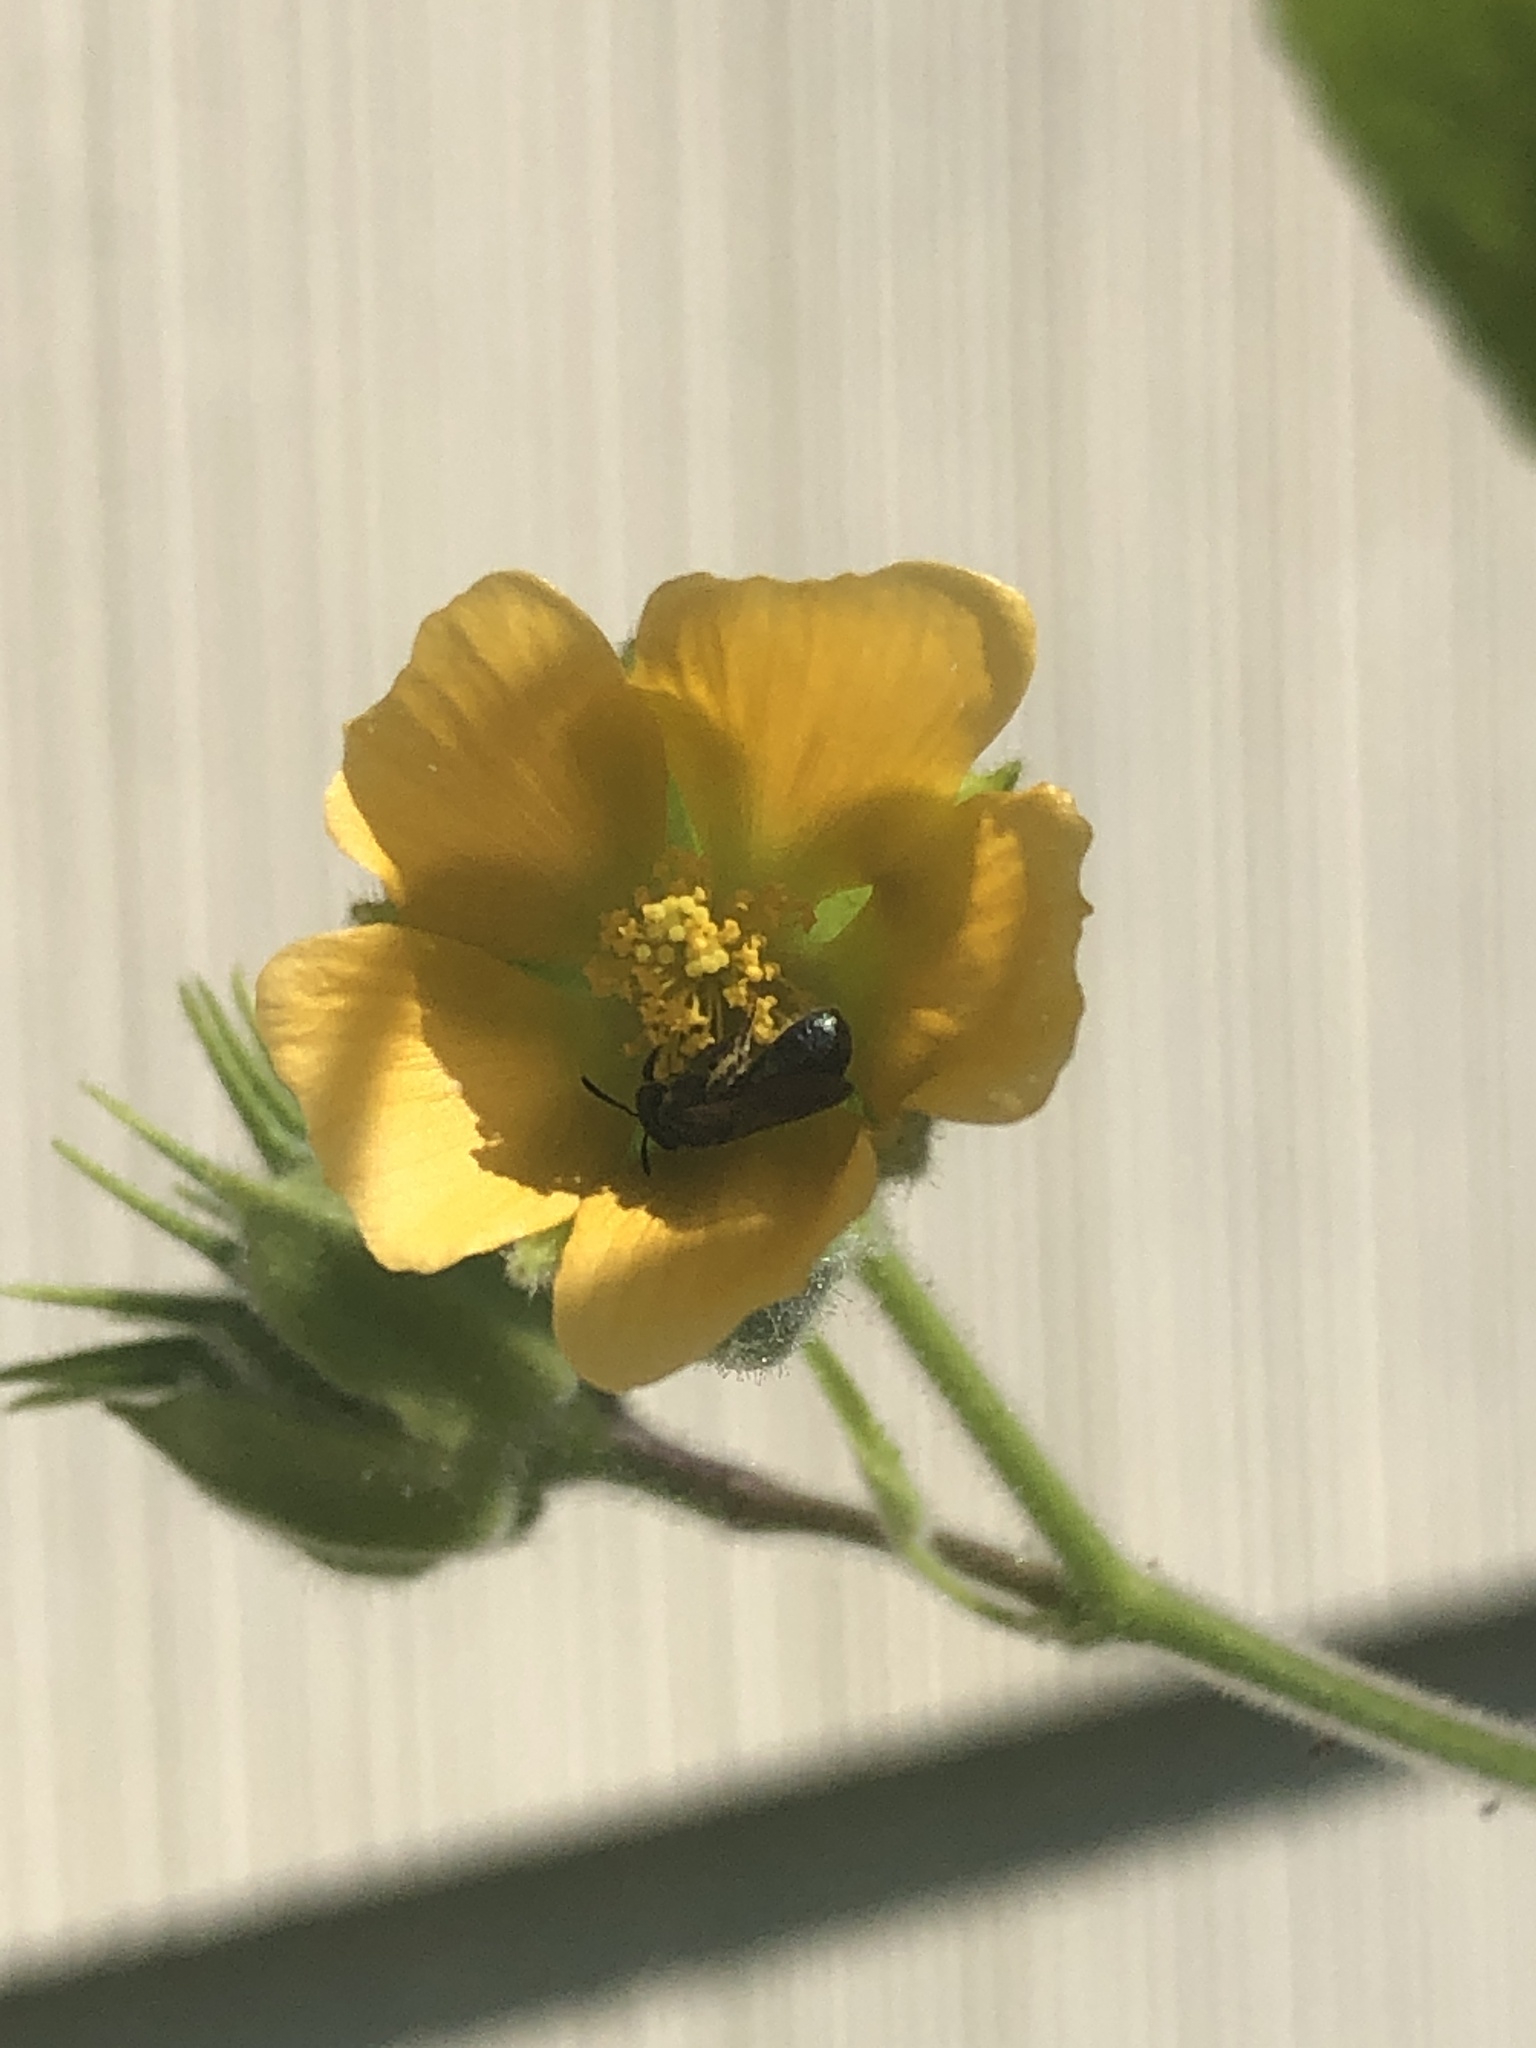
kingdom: Plantae
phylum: Tracheophyta
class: Magnoliopsida
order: Malvales
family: Malvaceae
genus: Abutilon
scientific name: Abutilon theophrasti
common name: Velvetleaf
